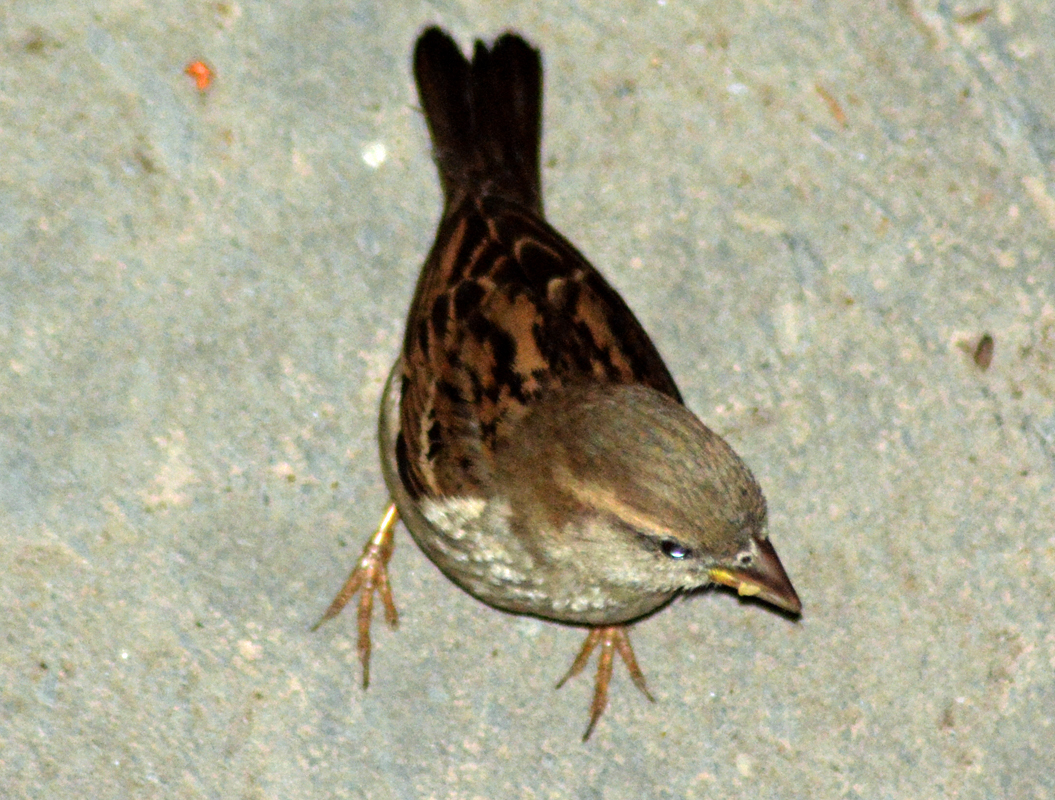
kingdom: Animalia
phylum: Chordata
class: Aves
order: Passeriformes
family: Passeridae
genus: Passer
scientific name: Passer domesticus
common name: House sparrow
